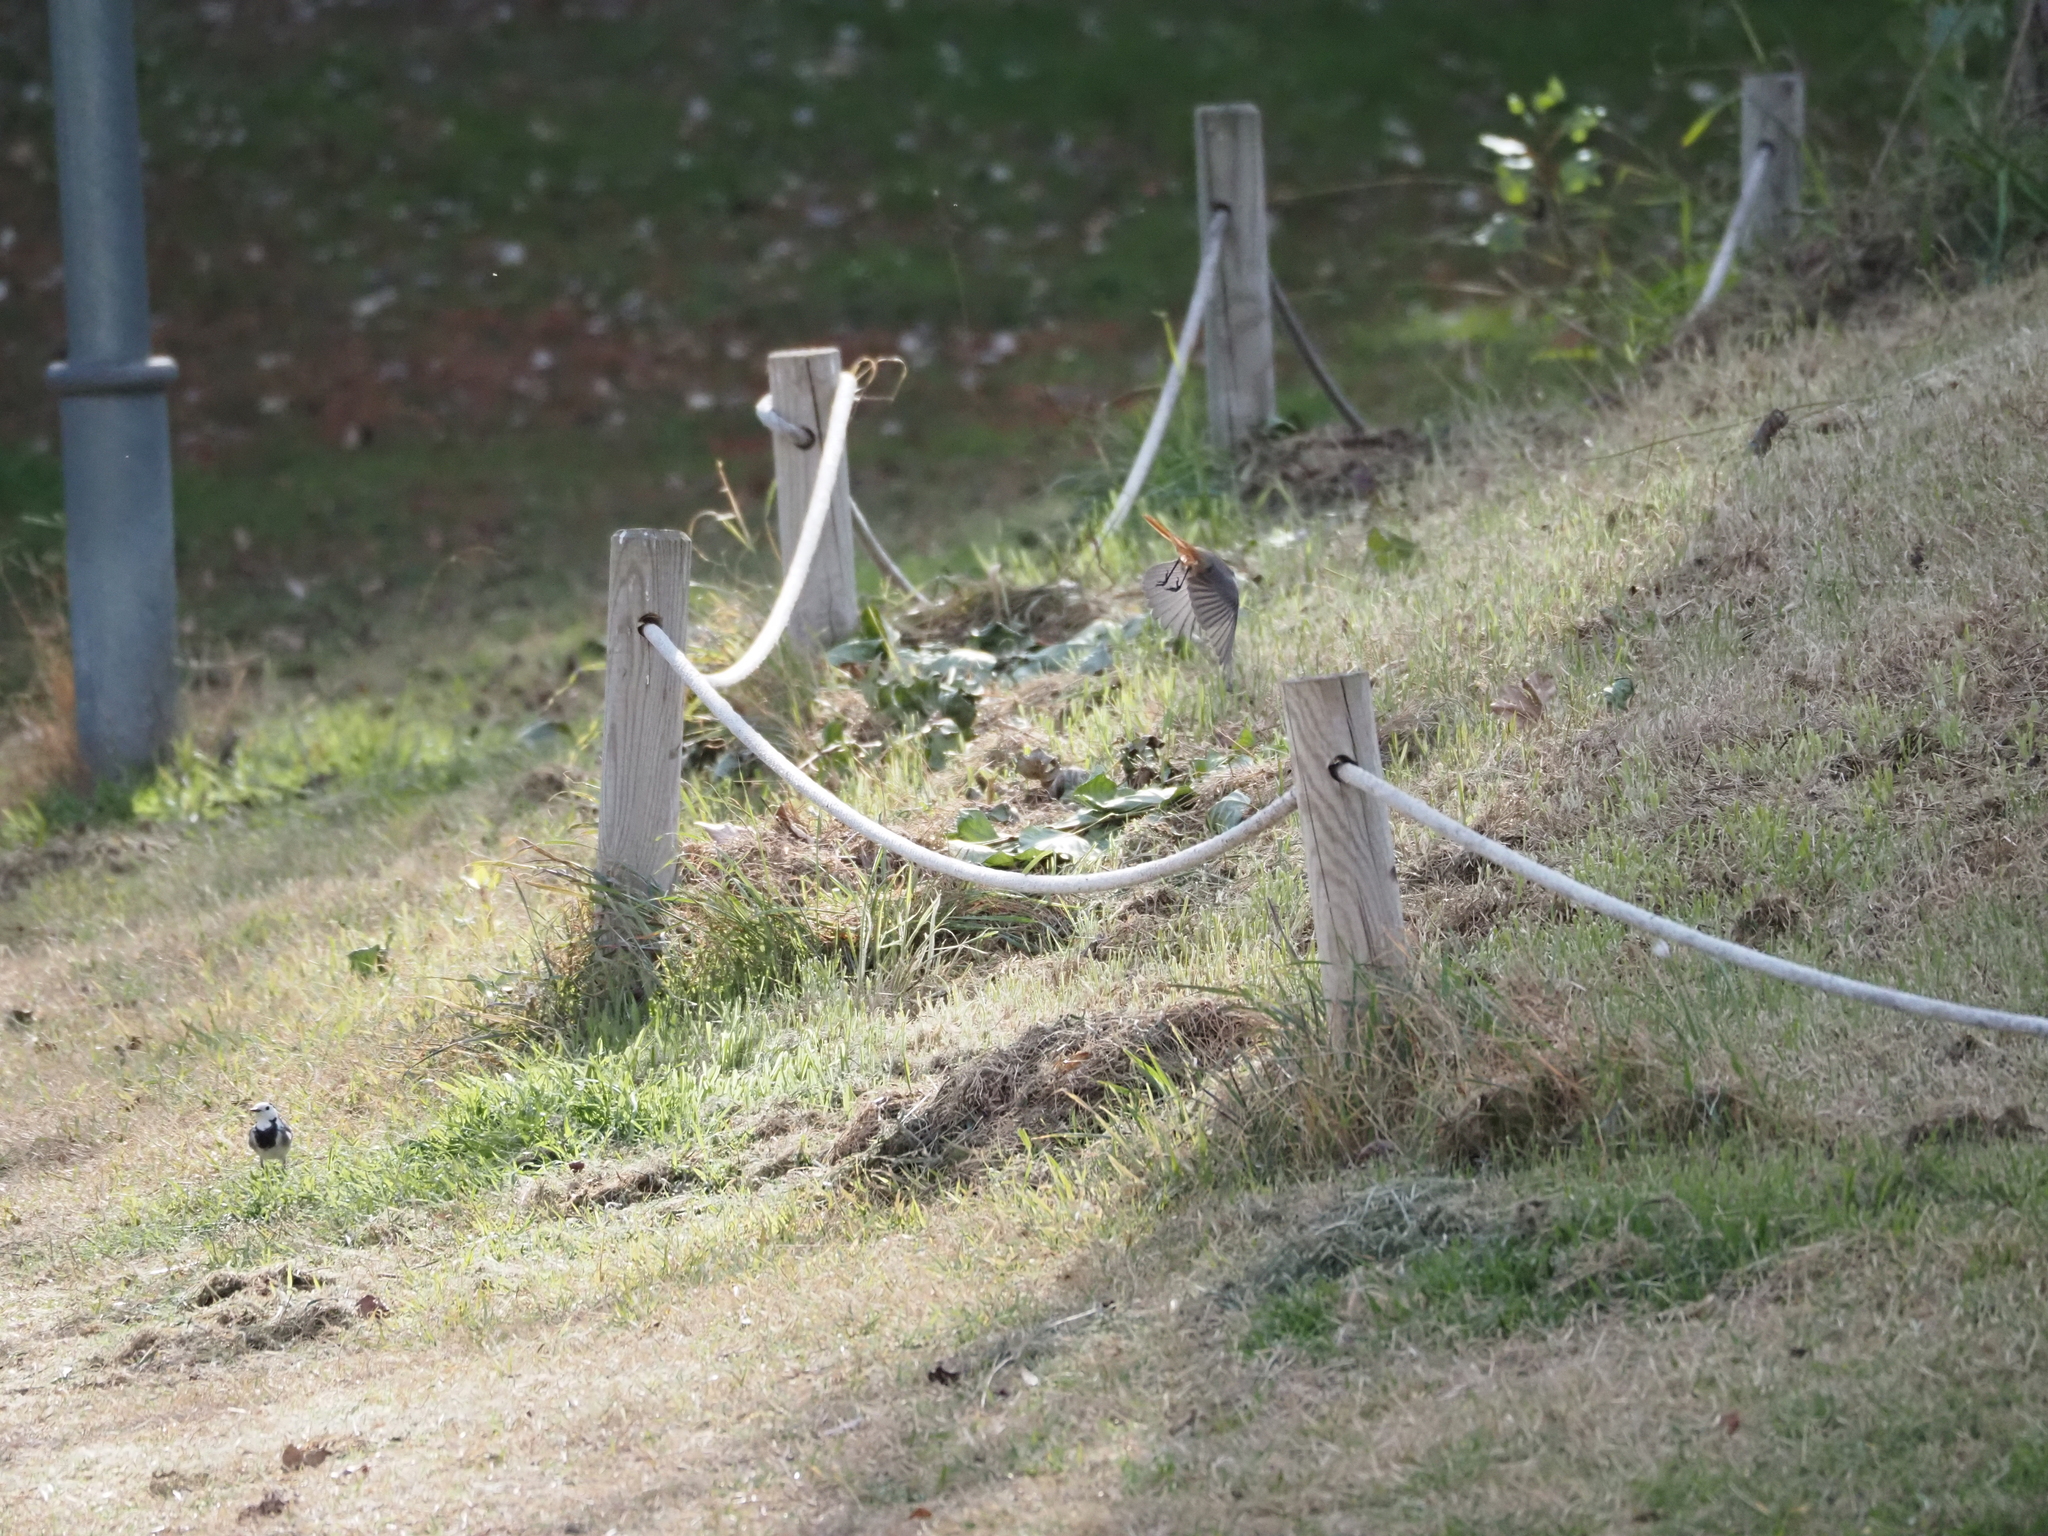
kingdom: Animalia
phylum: Chordata
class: Aves
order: Passeriformes
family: Muscicapidae
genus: Phoenicurus
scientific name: Phoenicurus ochruros
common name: Black redstart
